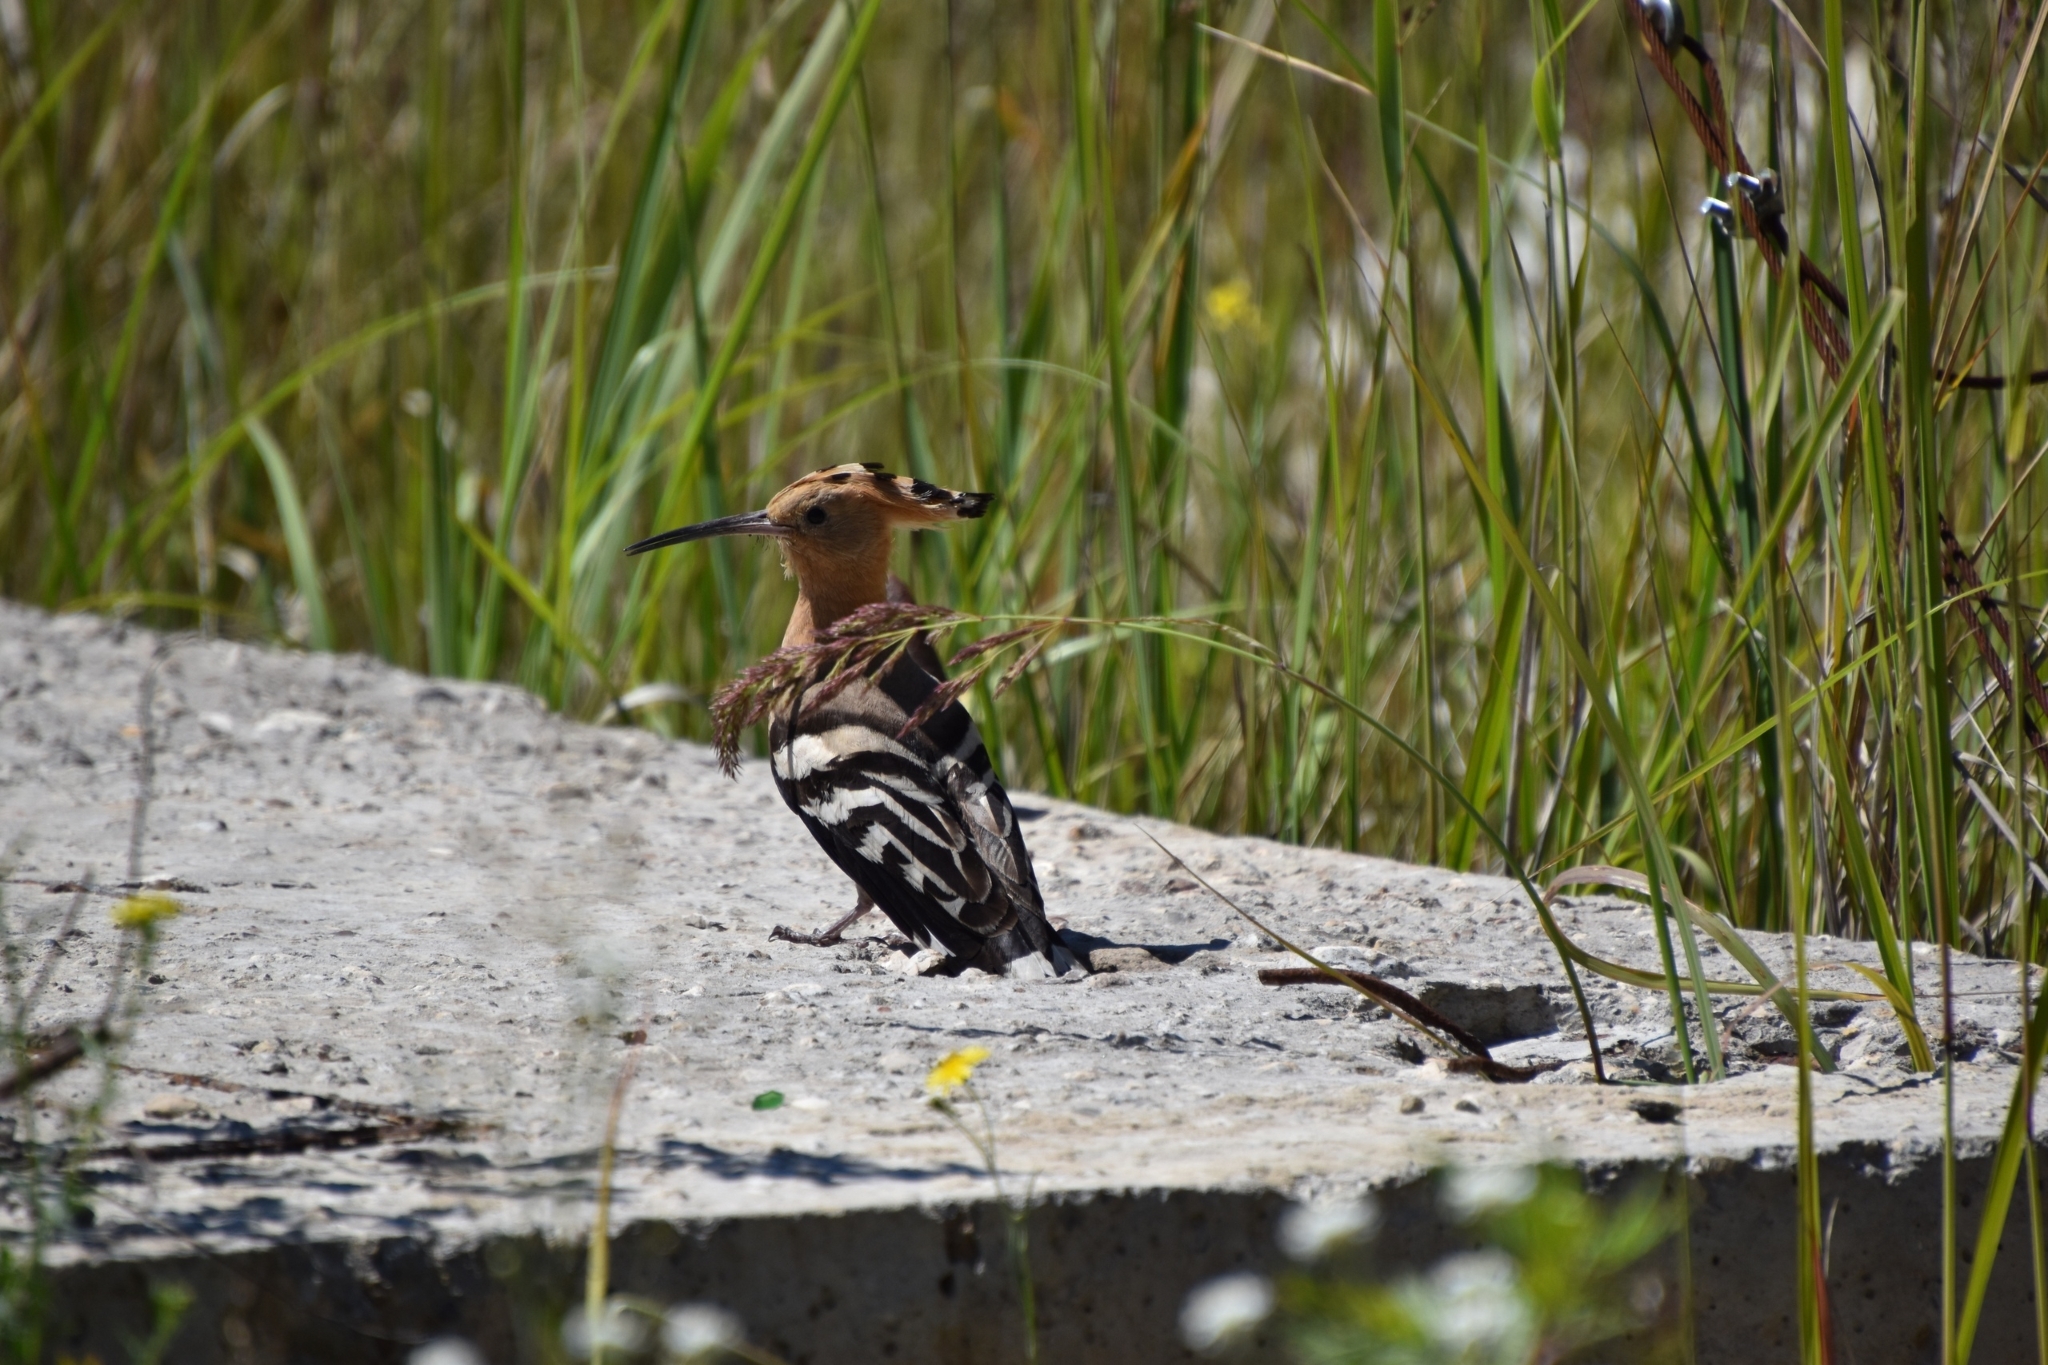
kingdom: Animalia
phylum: Chordata
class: Aves
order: Bucerotiformes
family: Upupidae
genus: Upupa
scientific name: Upupa epops
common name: Eurasian hoopoe
